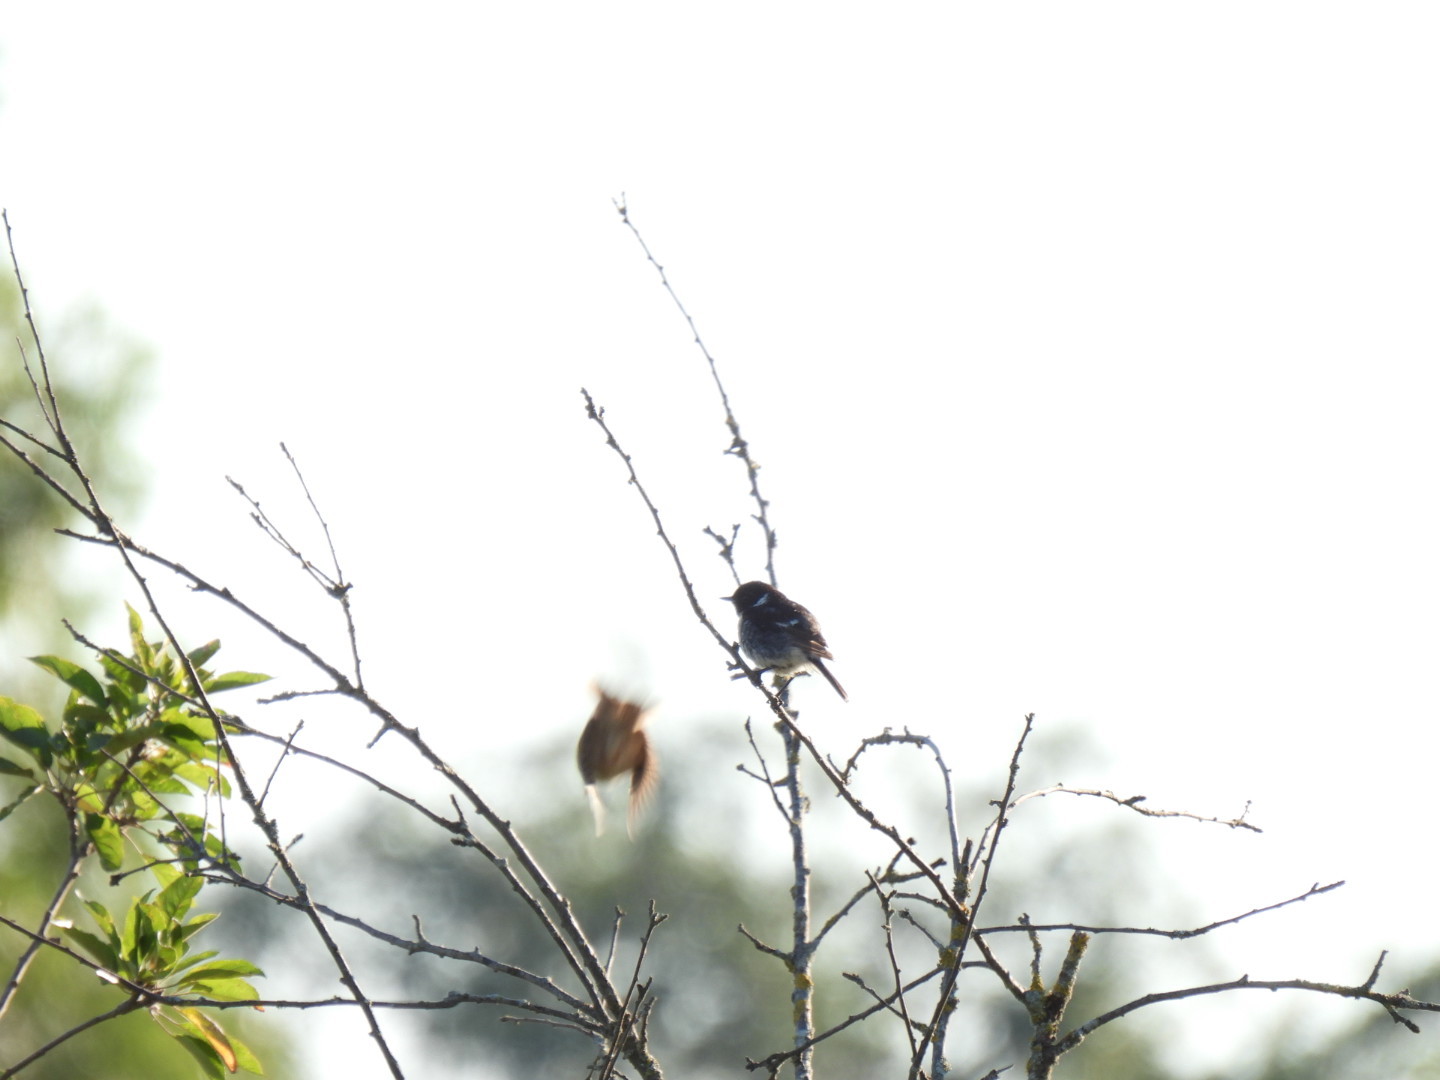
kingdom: Animalia
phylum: Chordata
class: Aves
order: Passeriformes
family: Muscicapidae
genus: Saxicola
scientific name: Saxicola rubicola
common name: European stonechat
